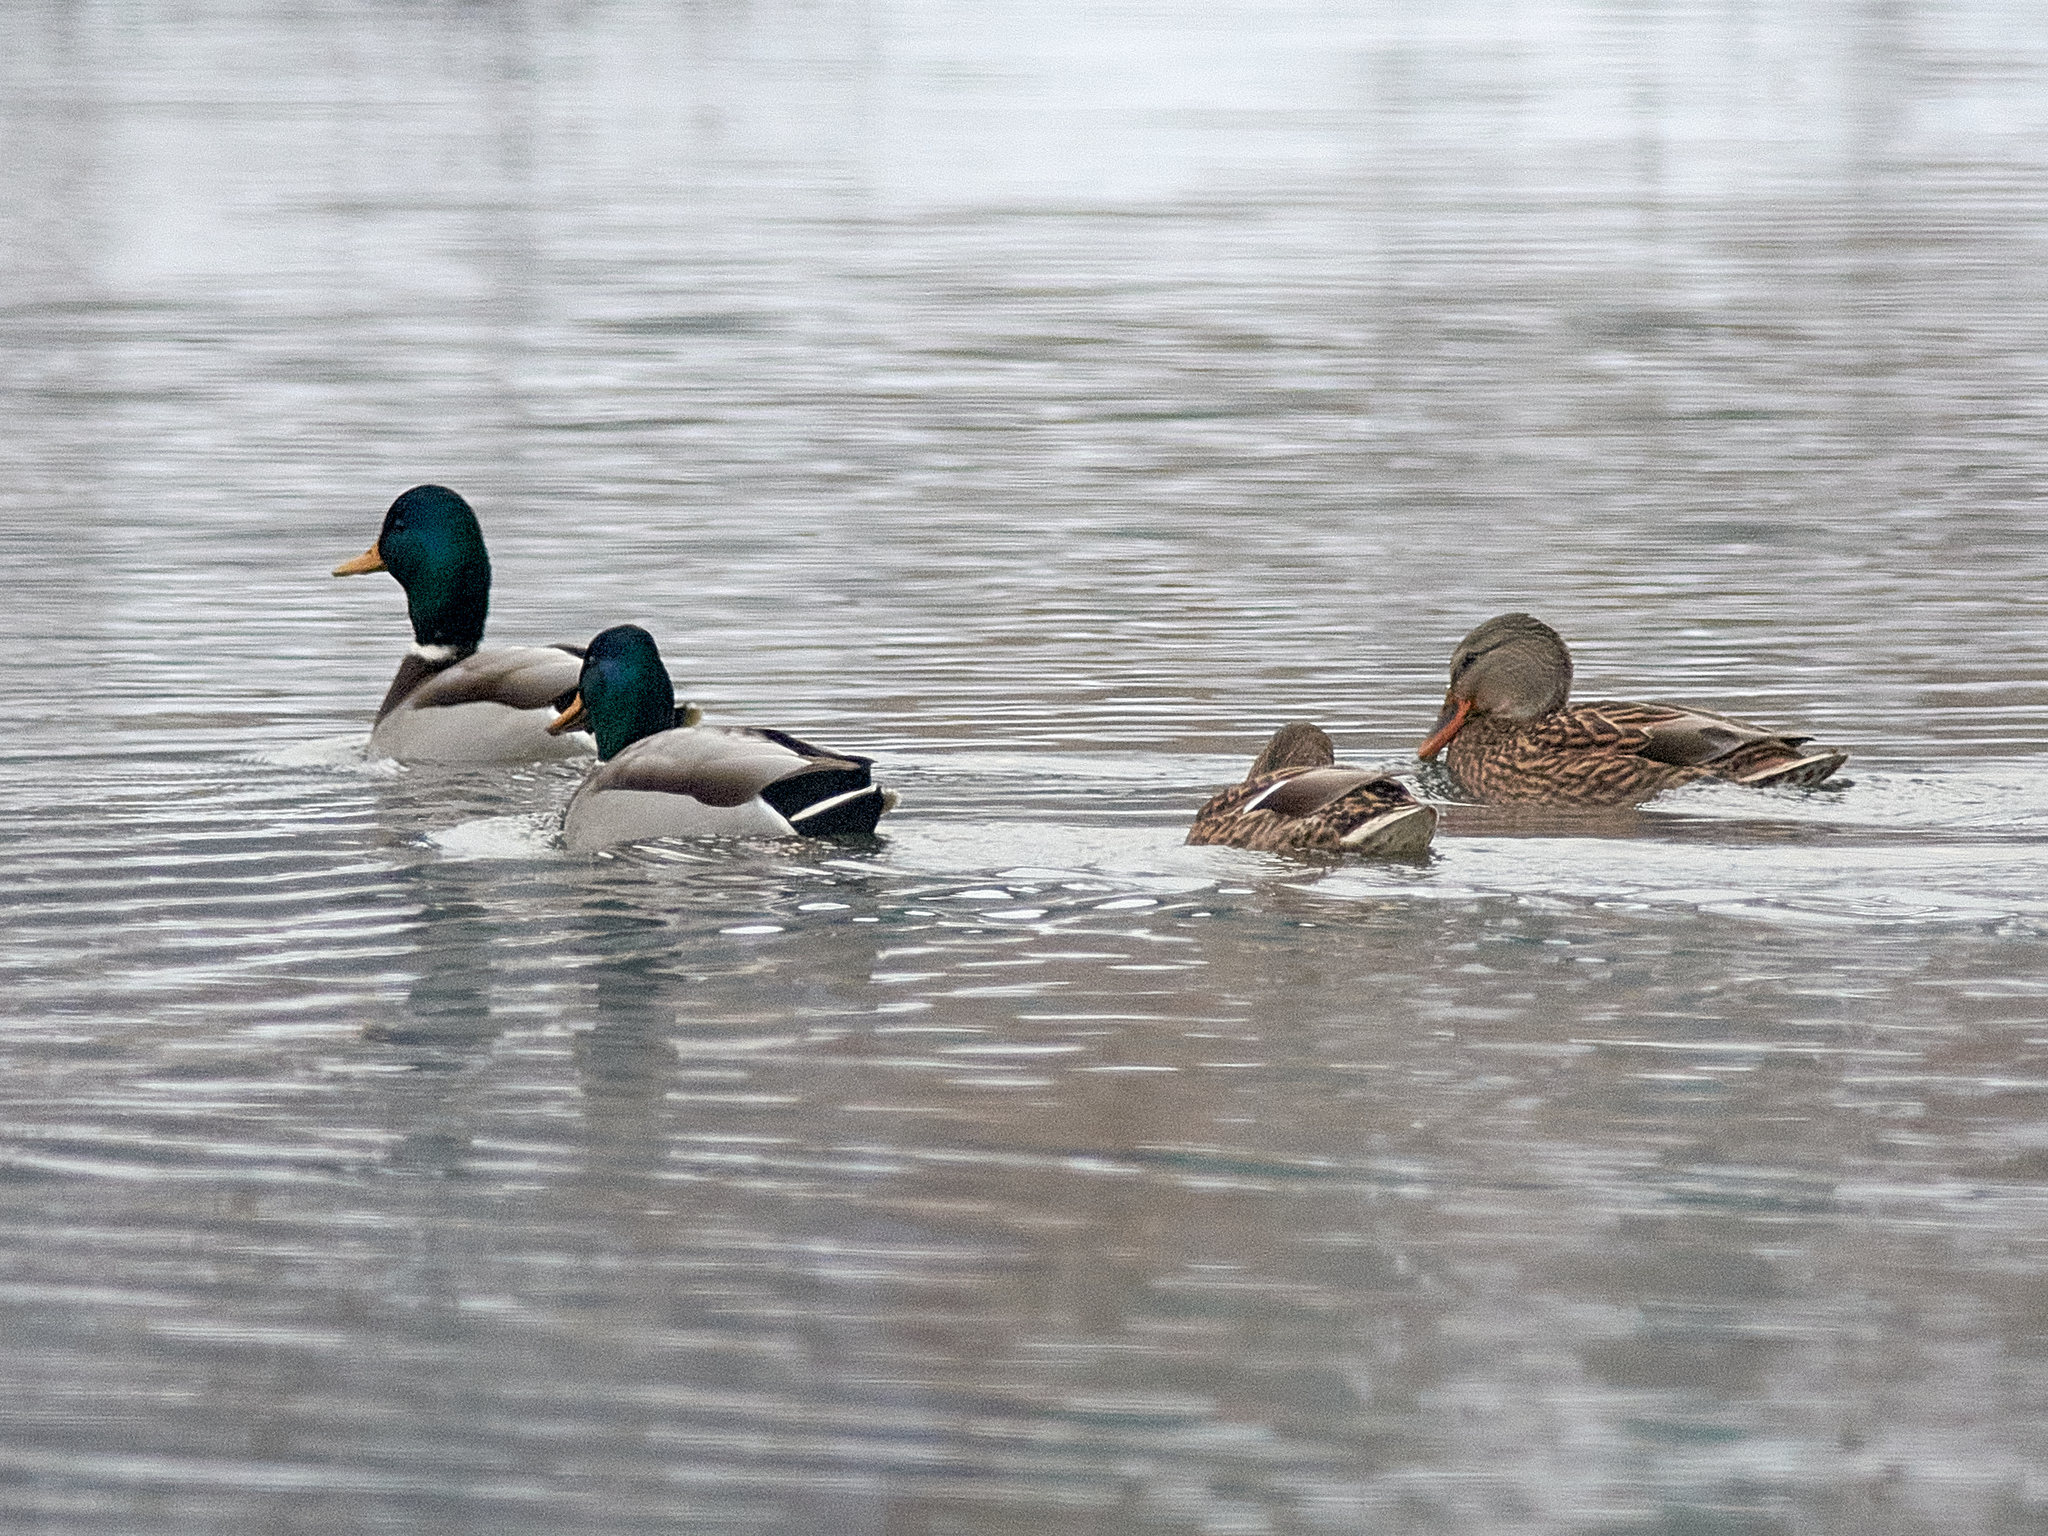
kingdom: Animalia
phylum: Chordata
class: Aves
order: Anseriformes
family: Anatidae
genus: Anas
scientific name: Anas platyrhynchos
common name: Mallard
